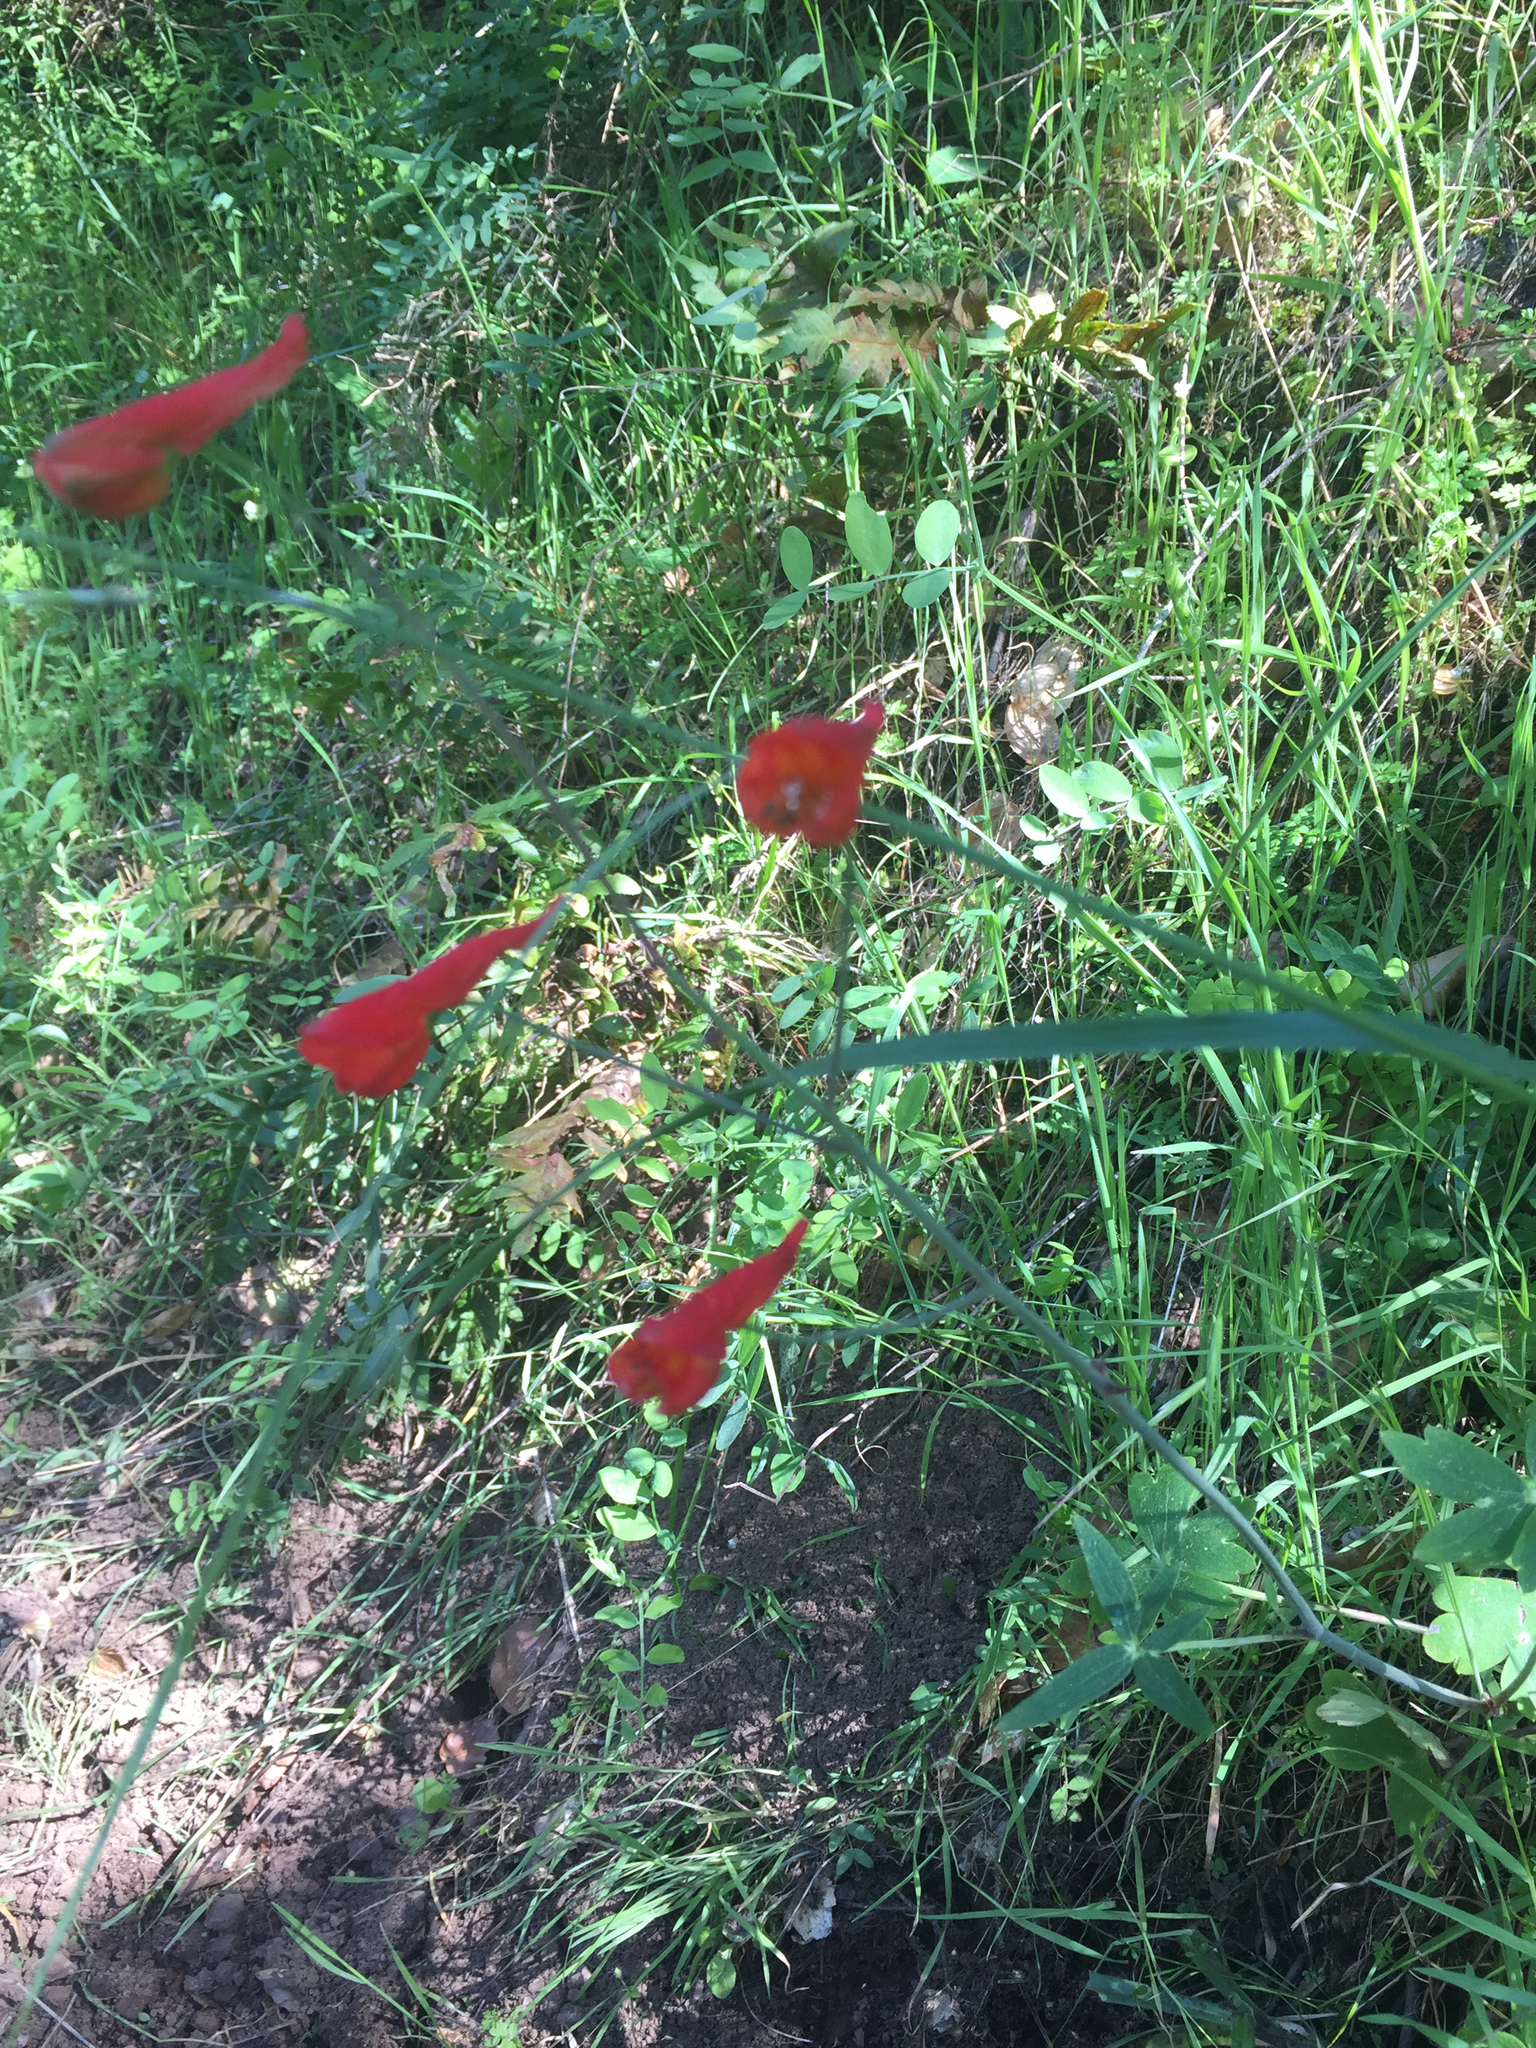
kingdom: Plantae
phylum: Tracheophyta
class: Magnoliopsida
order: Ranunculales
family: Ranunculaceae
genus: Delphinium
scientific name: Delphinium nudicaule
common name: Red larkspur
